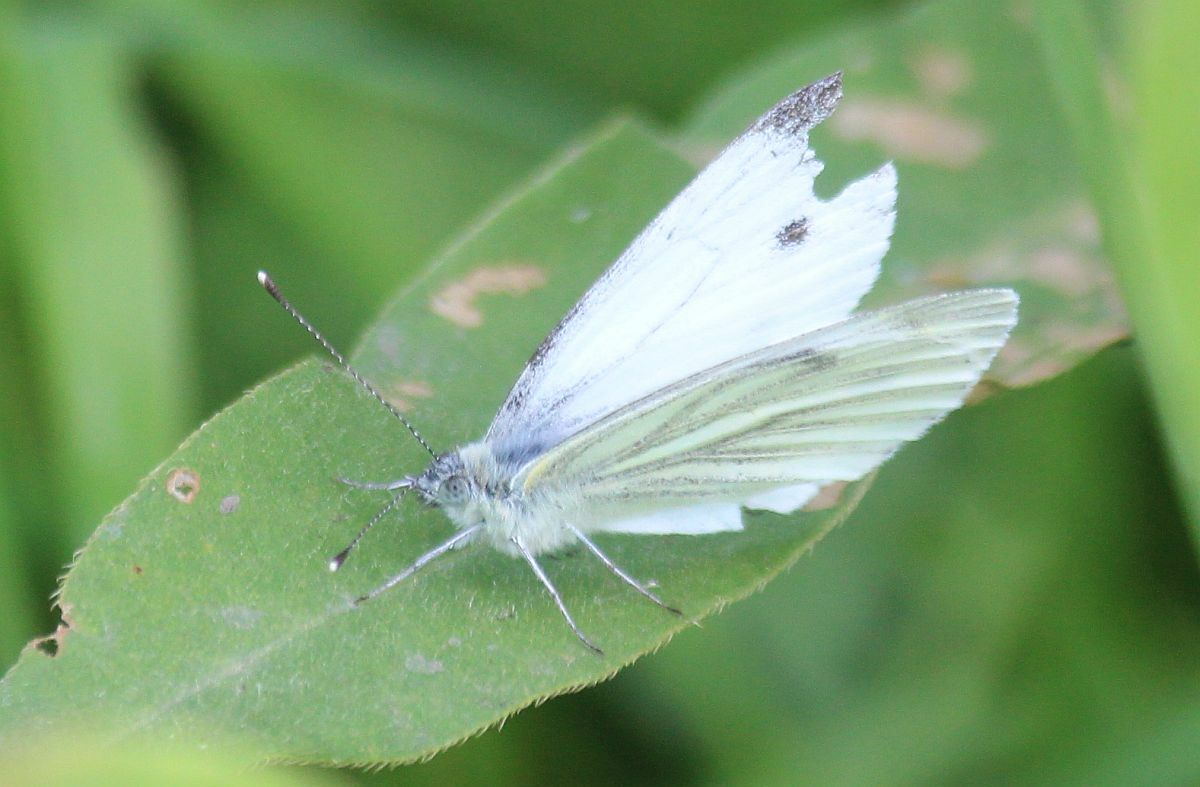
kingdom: Animalia
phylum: Arthropoda
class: Insecta
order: Lepidoptera
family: Pieridae
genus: Pieris
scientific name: Pieris napi
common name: Green-veined white
